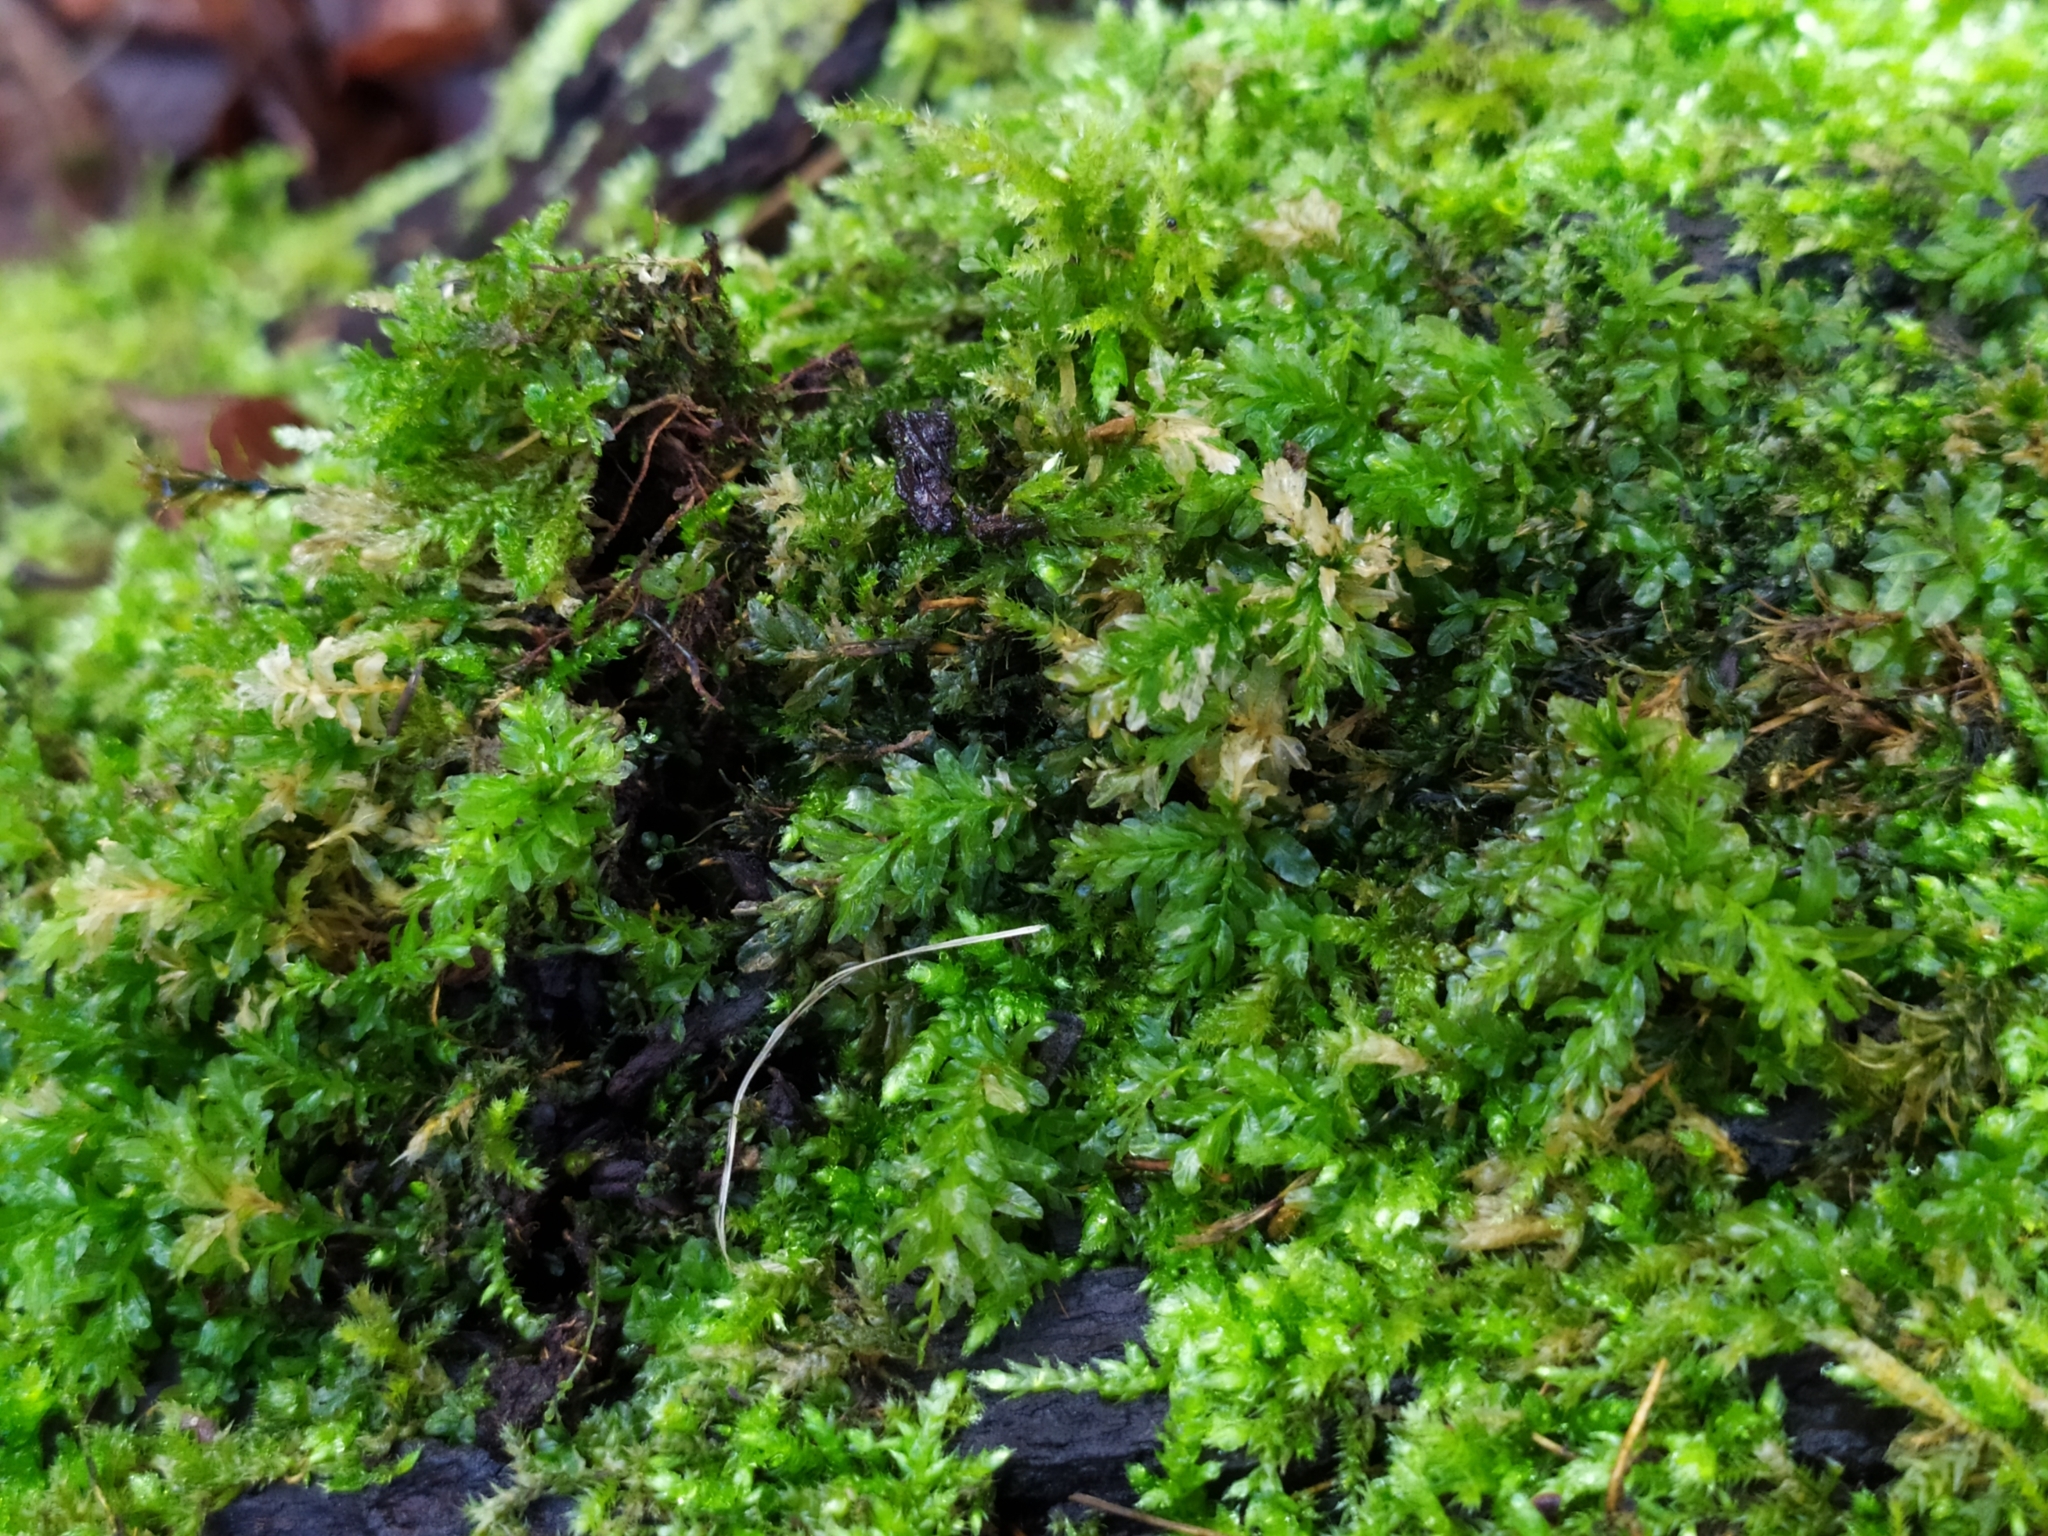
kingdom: Plantae
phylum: Bryophyta
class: Bryopsida
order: Bryales
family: Mniaceae
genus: Plagiomnium
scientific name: Plagiomnium undulatum
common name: Hart's-tongue thyme-moss
